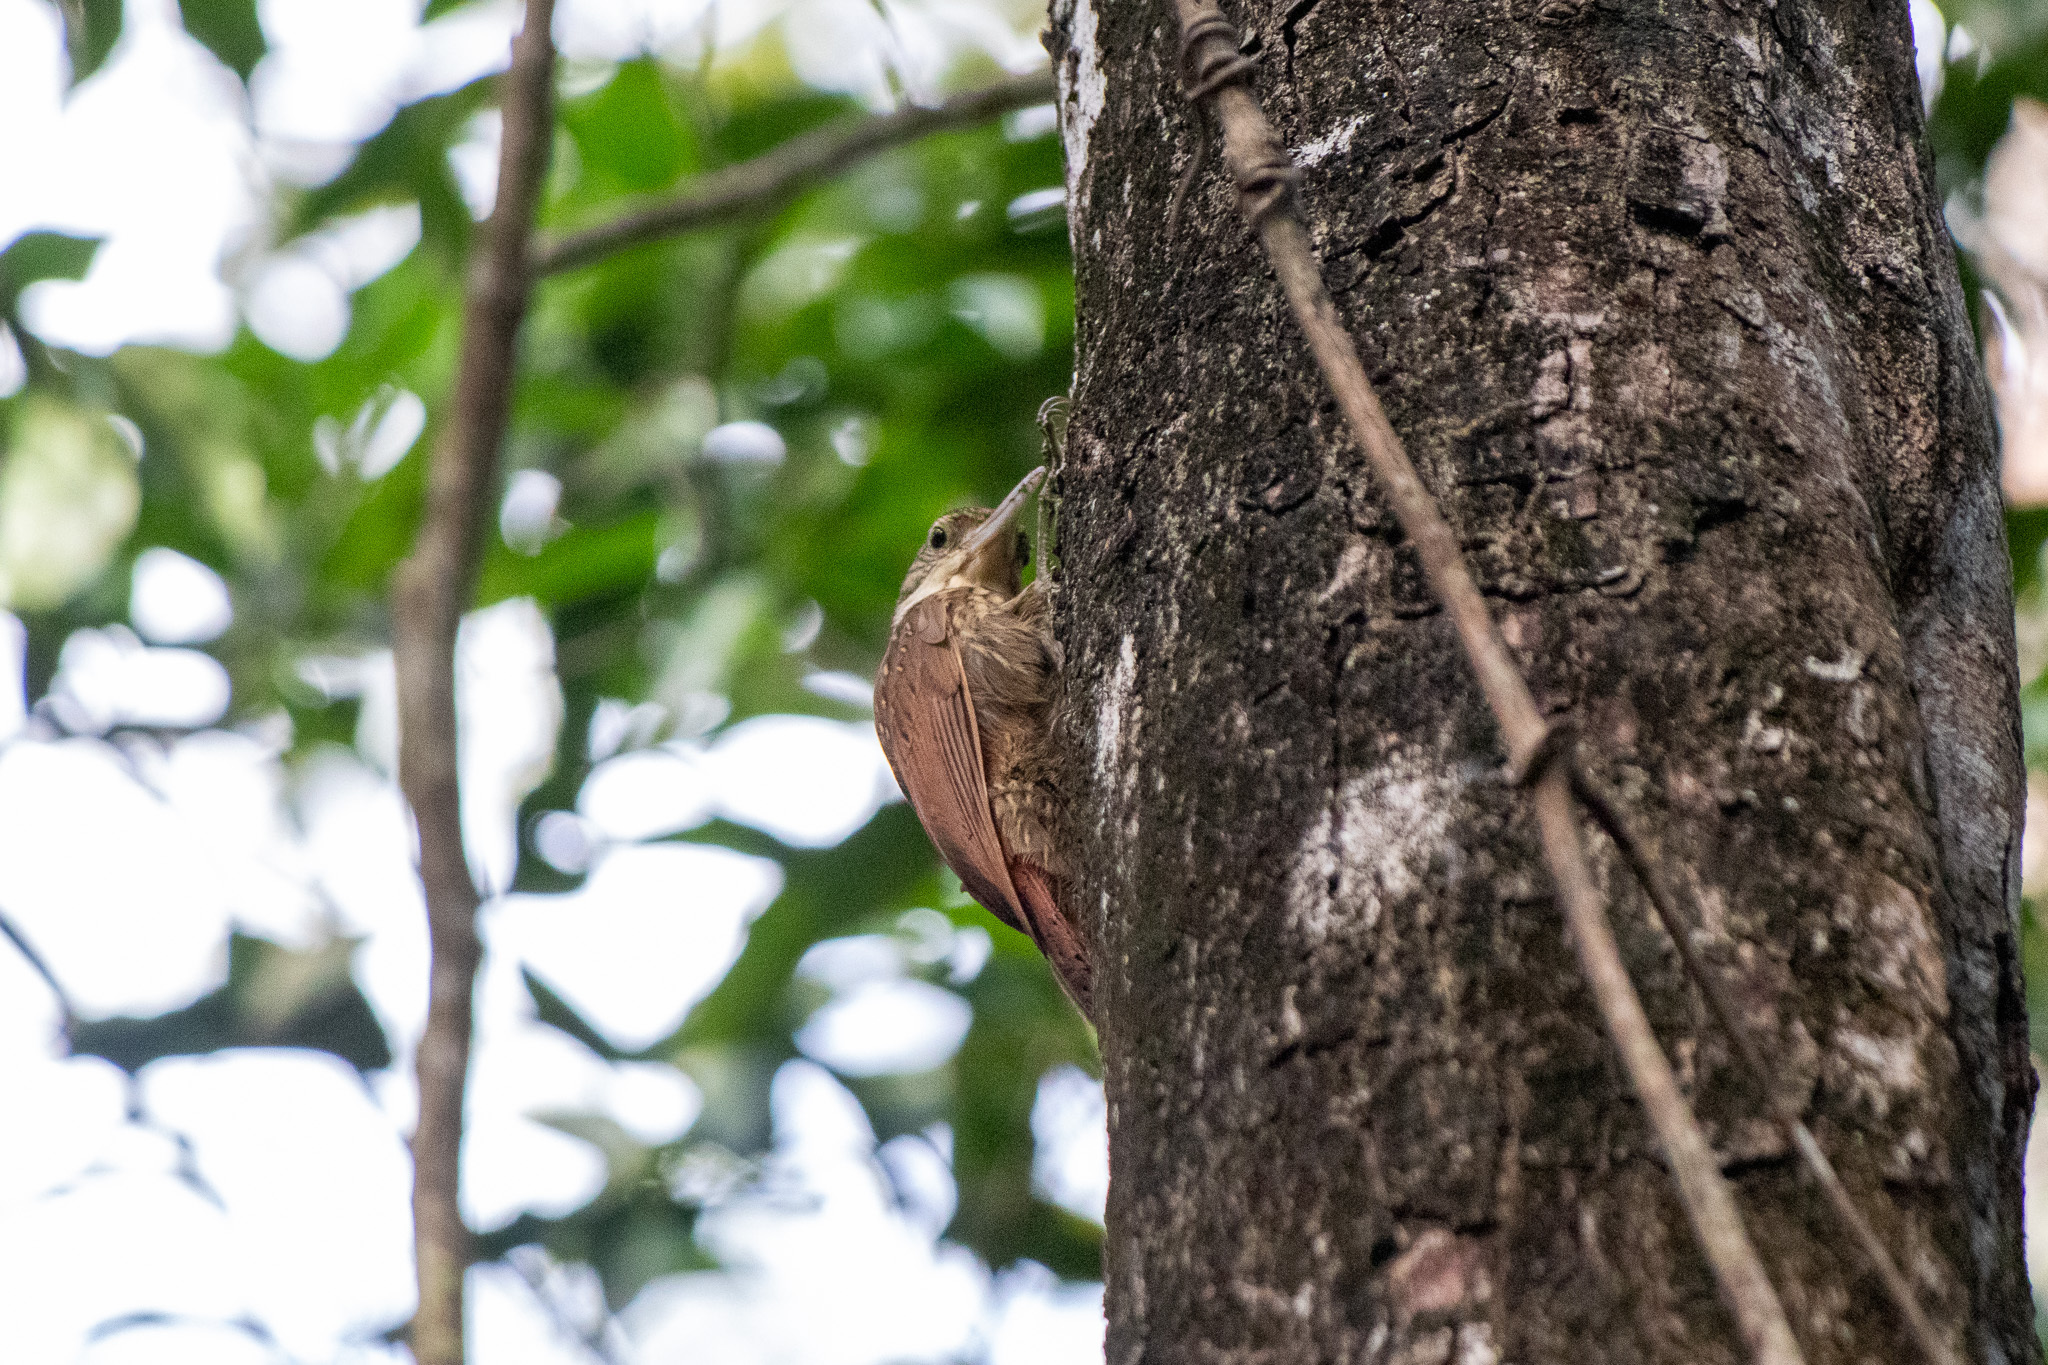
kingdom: Animalia
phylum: Chordata
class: Aves
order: Passeriformes
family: Furnariidae
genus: Xiphorhynchus
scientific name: Xiphorhynchus flavigaster
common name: Ivory-billed woodcreeper
